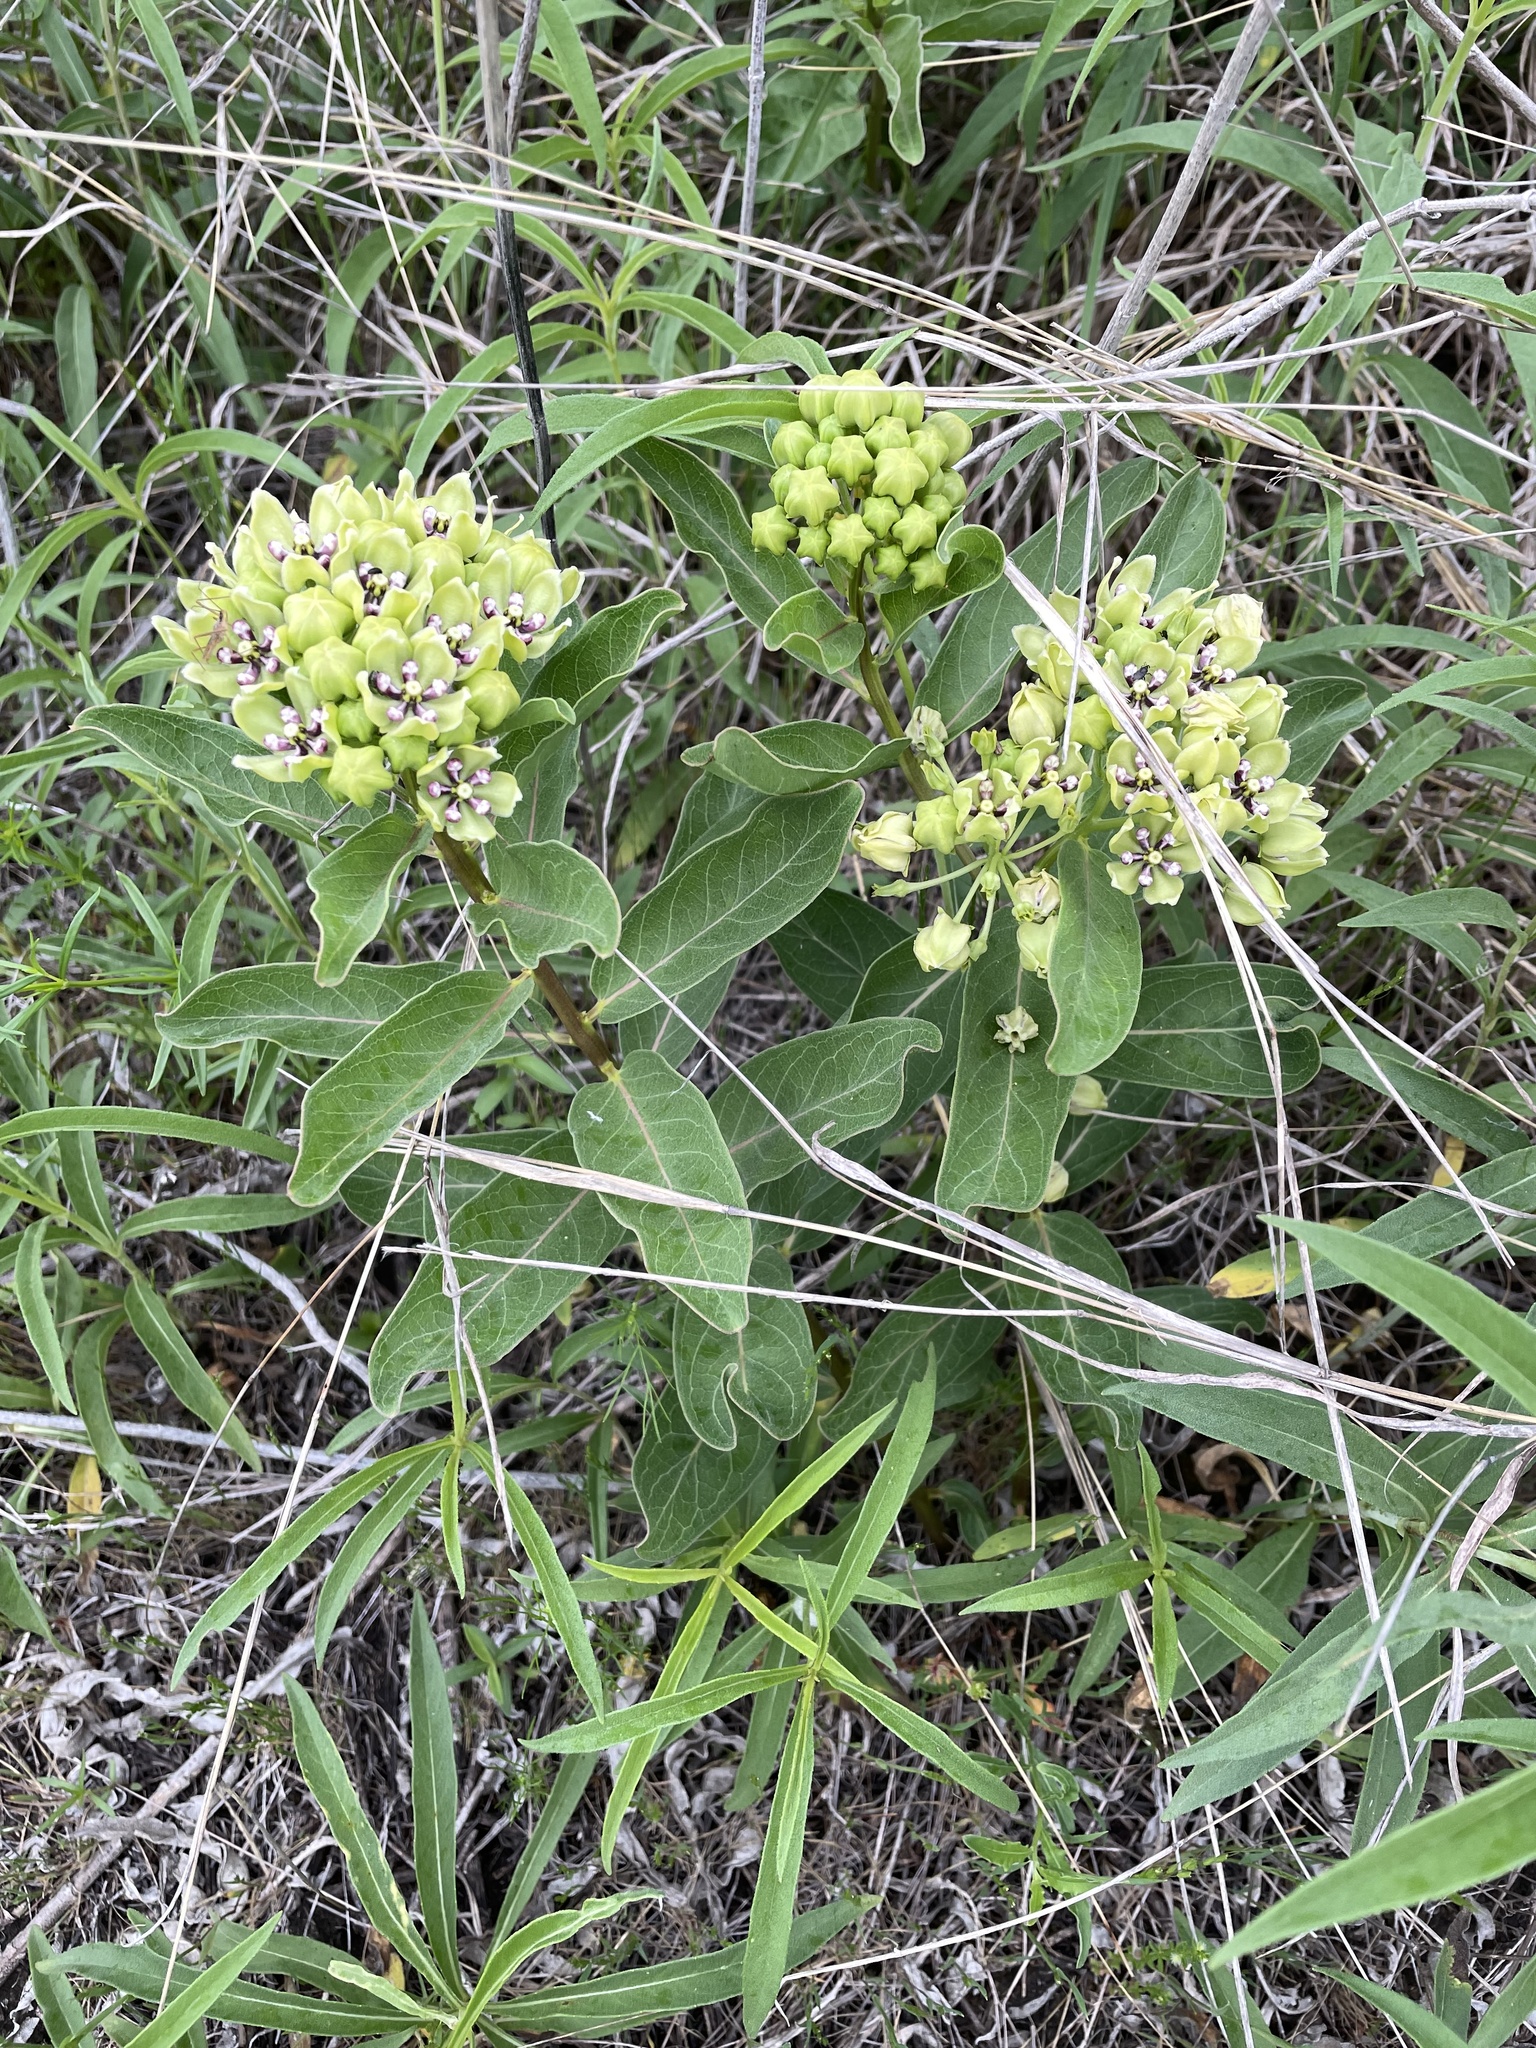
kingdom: Plantae
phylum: Tracheophyta
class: Magnoliopsida
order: Gentianales
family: Apocynaceae
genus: Asclepias
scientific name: Asclepias viridis
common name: Antelope-horns
